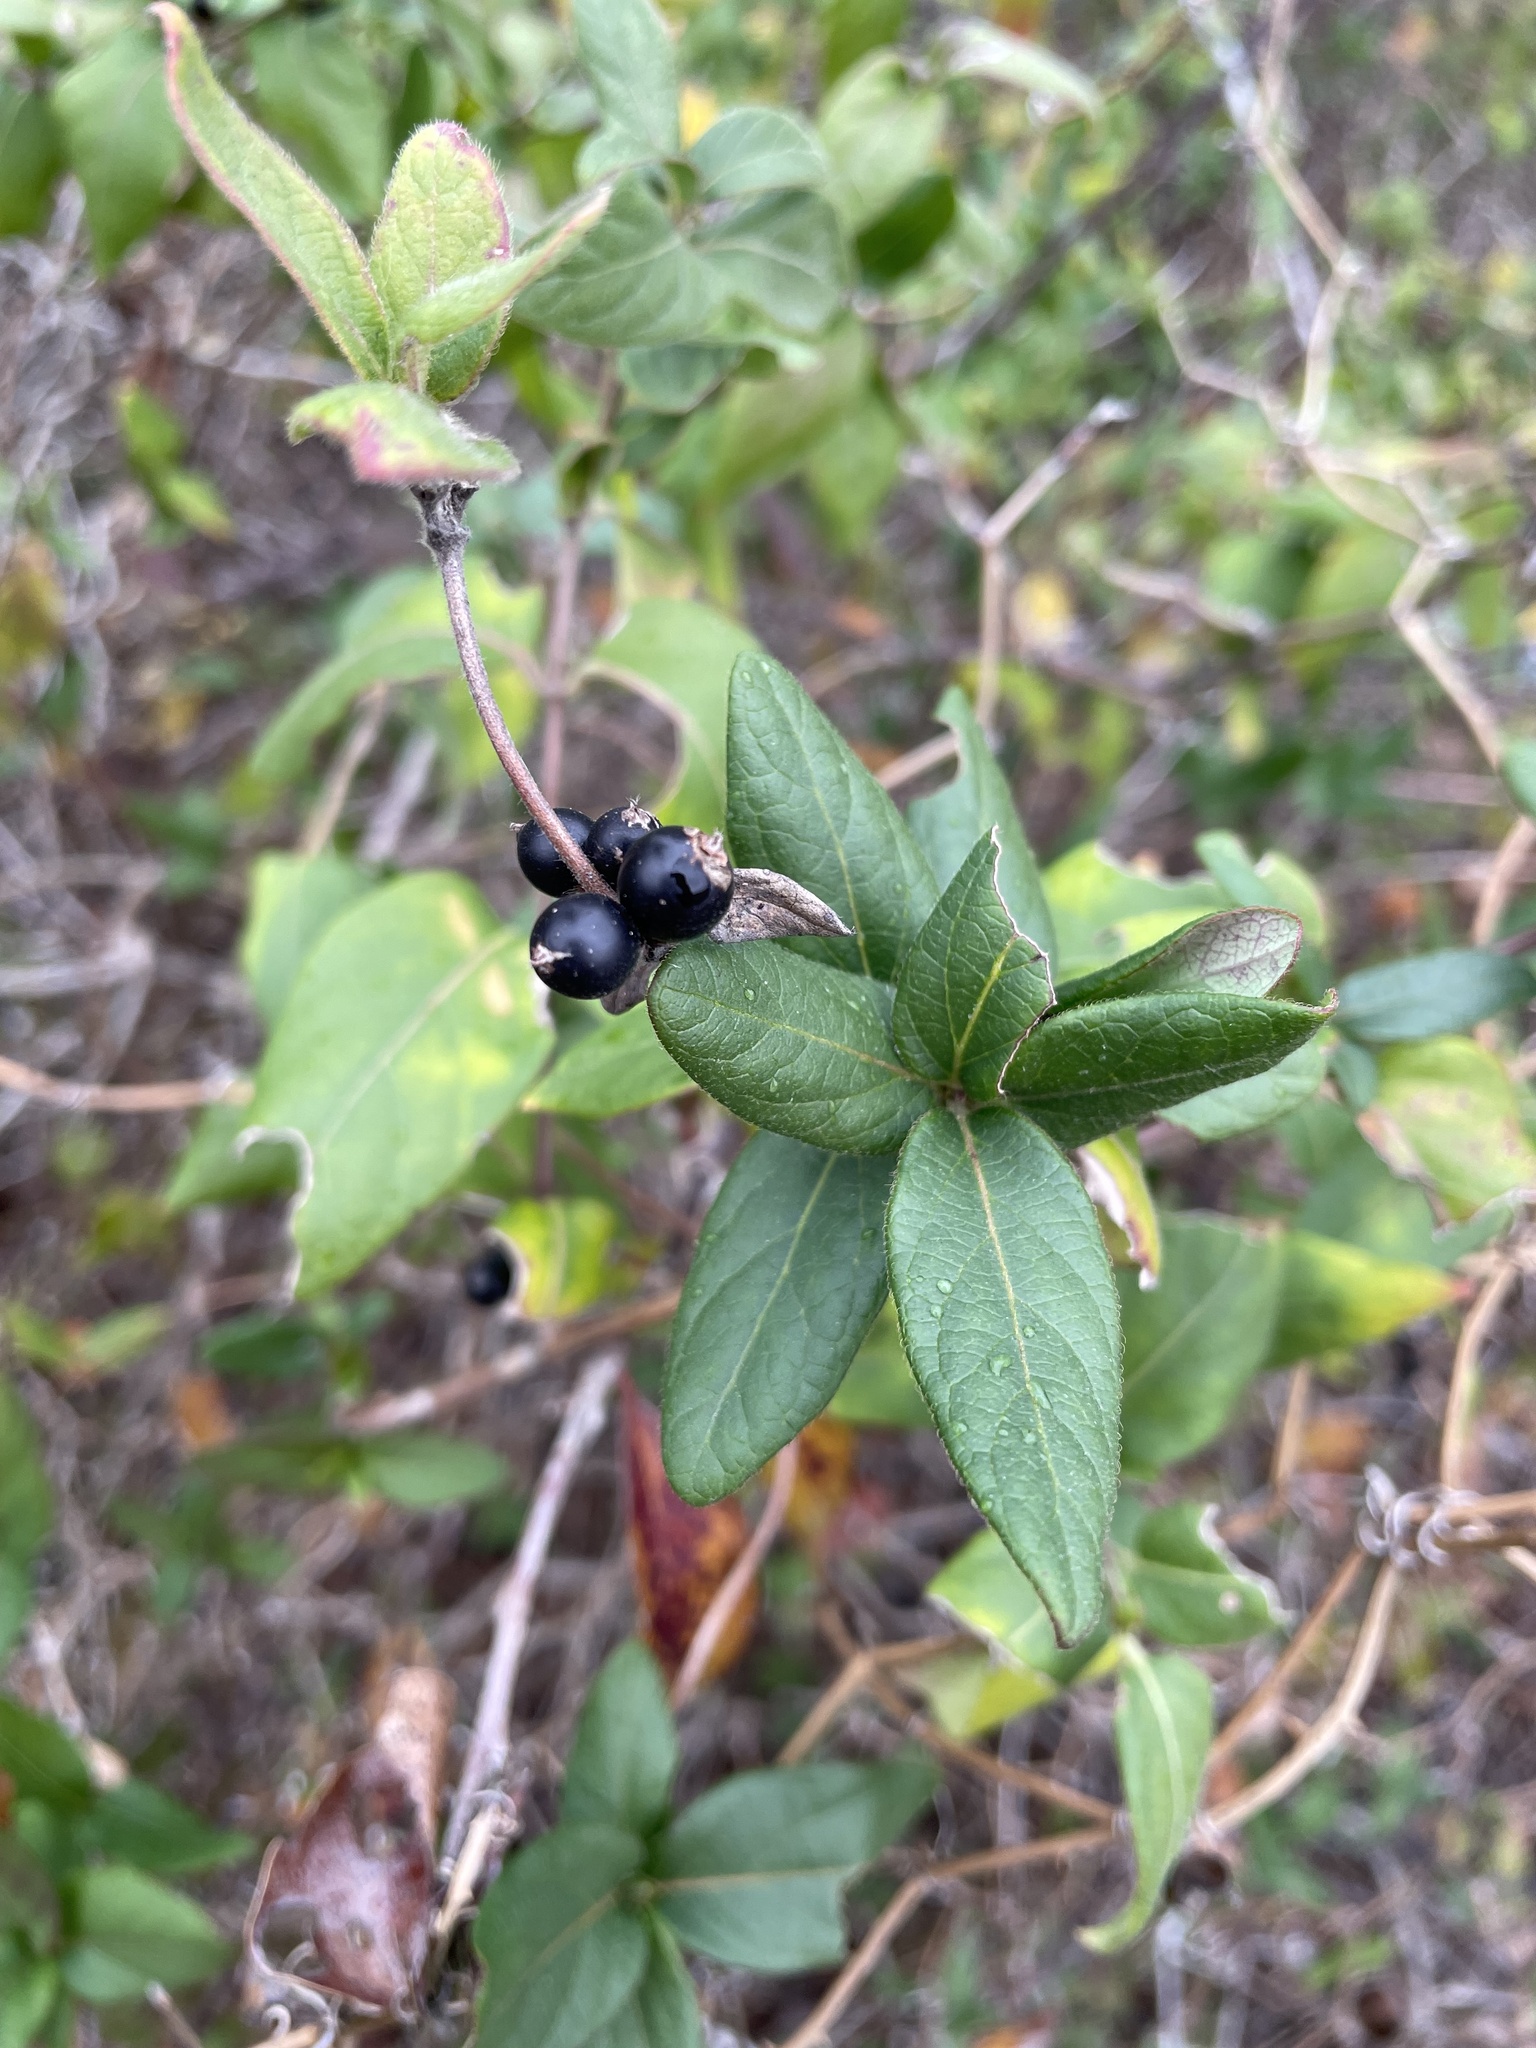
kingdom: Plantae
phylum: Tracheophyta
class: Magnoliopsida
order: Dipsacales
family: Caprifoliaceae
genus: Lonicera
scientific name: Lonicera japonica
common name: Japanese honeysuckle
